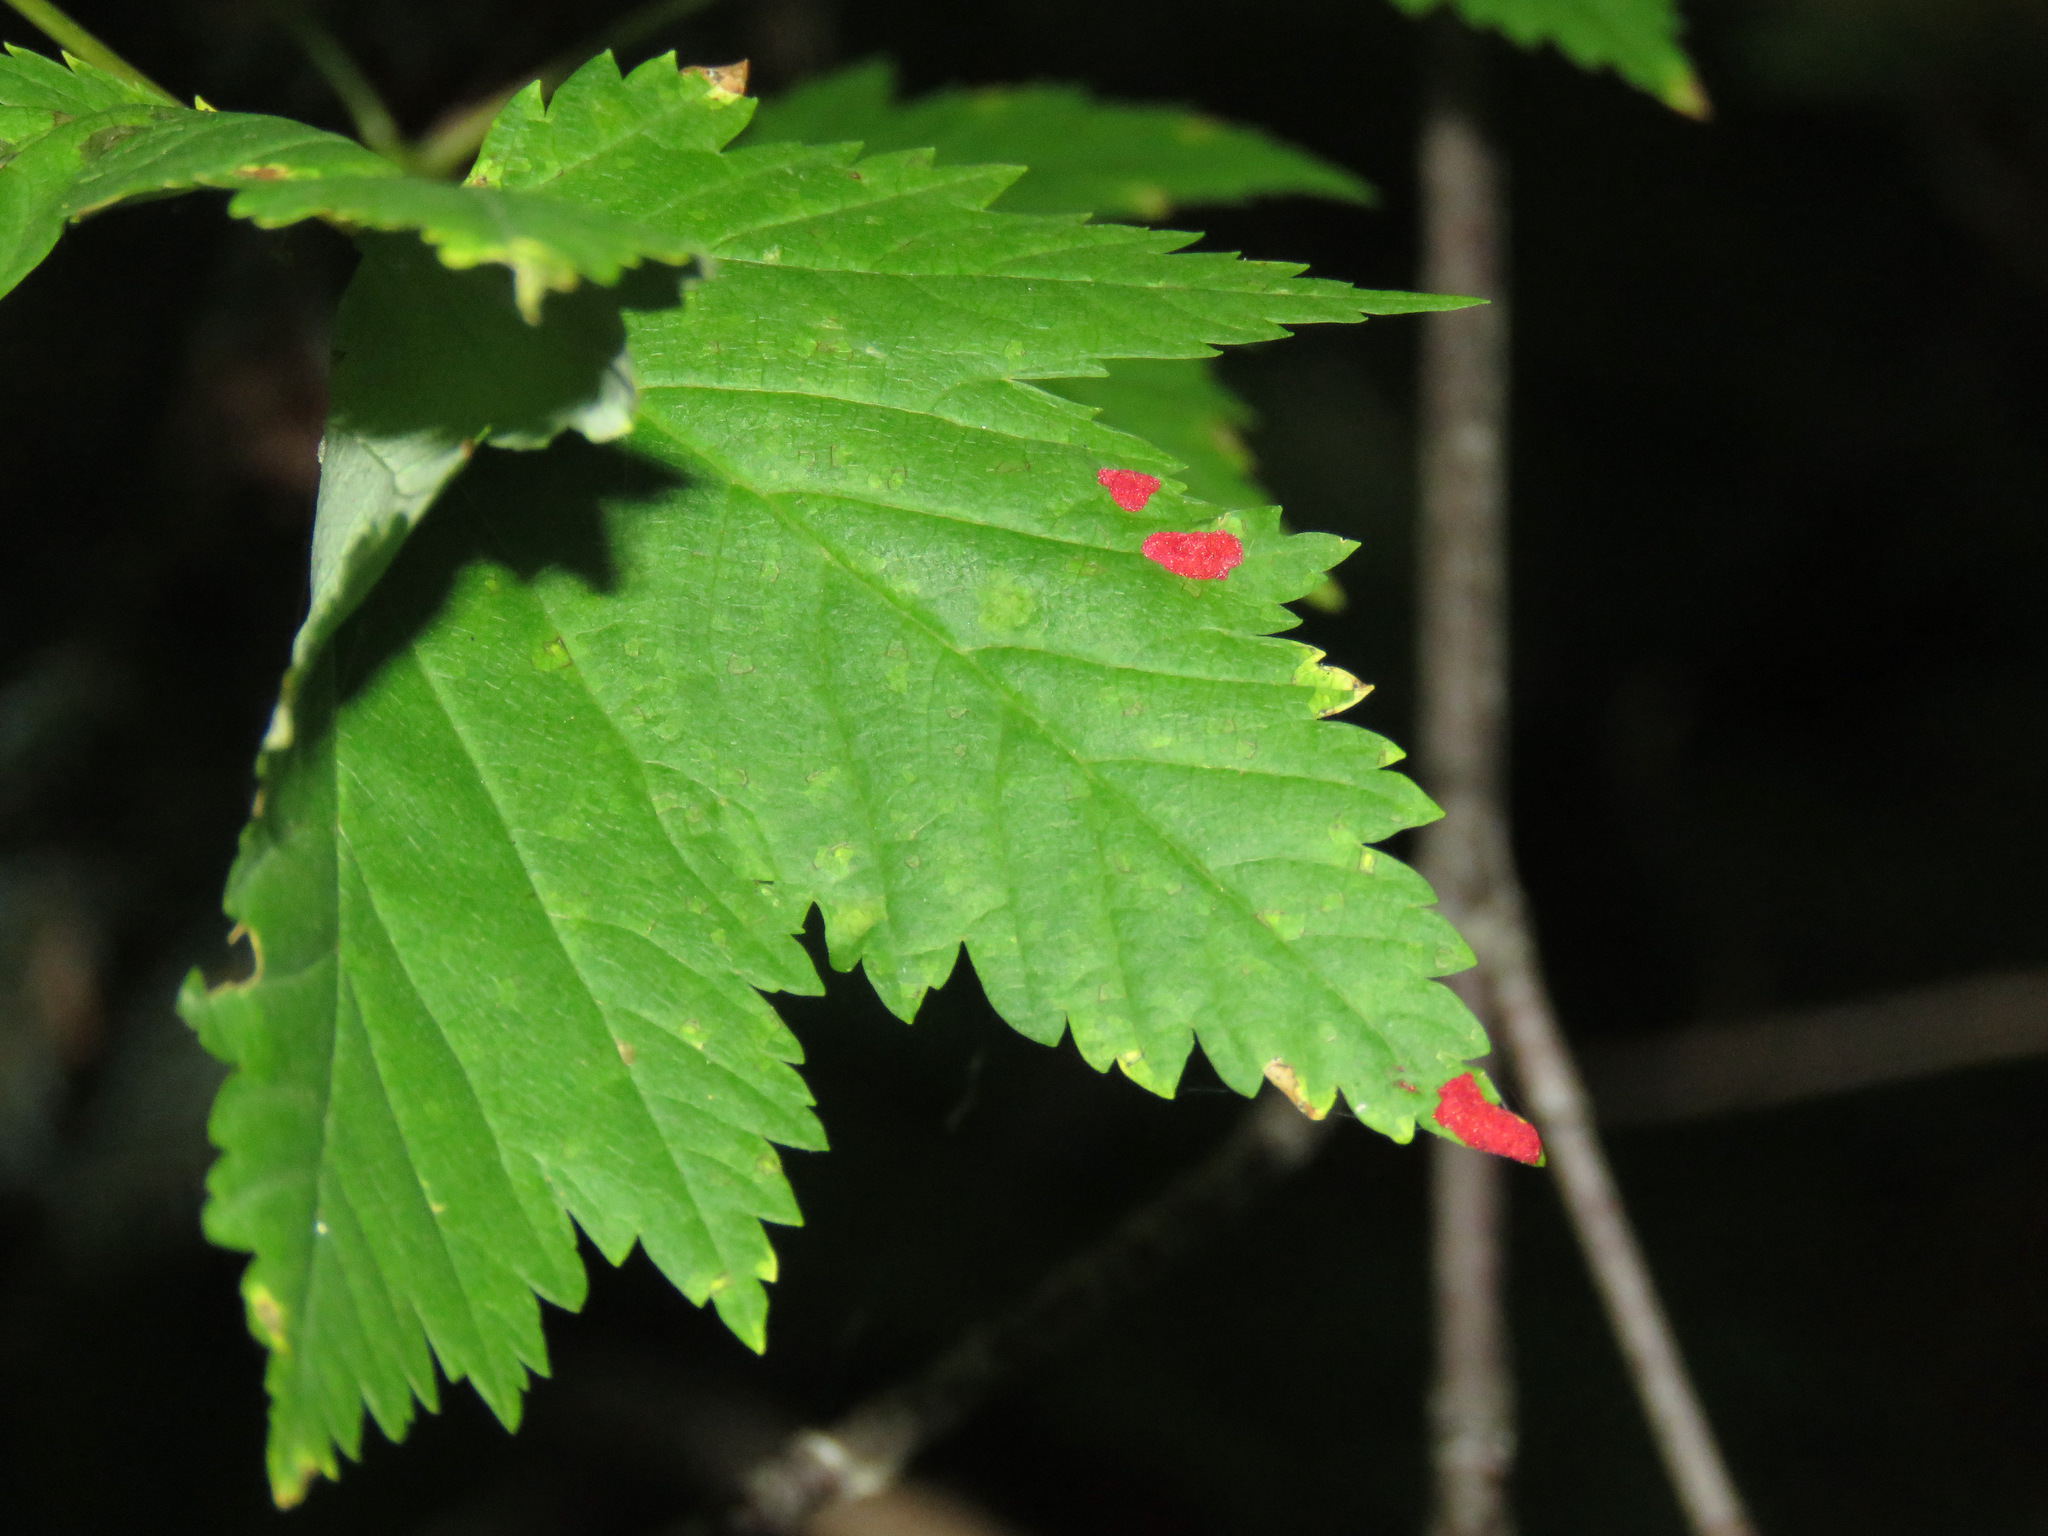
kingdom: Animalia
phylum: Arthropoda
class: Arachnida
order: Trombidiformes
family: Eriophyidae
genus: Aceria
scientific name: Aceria
